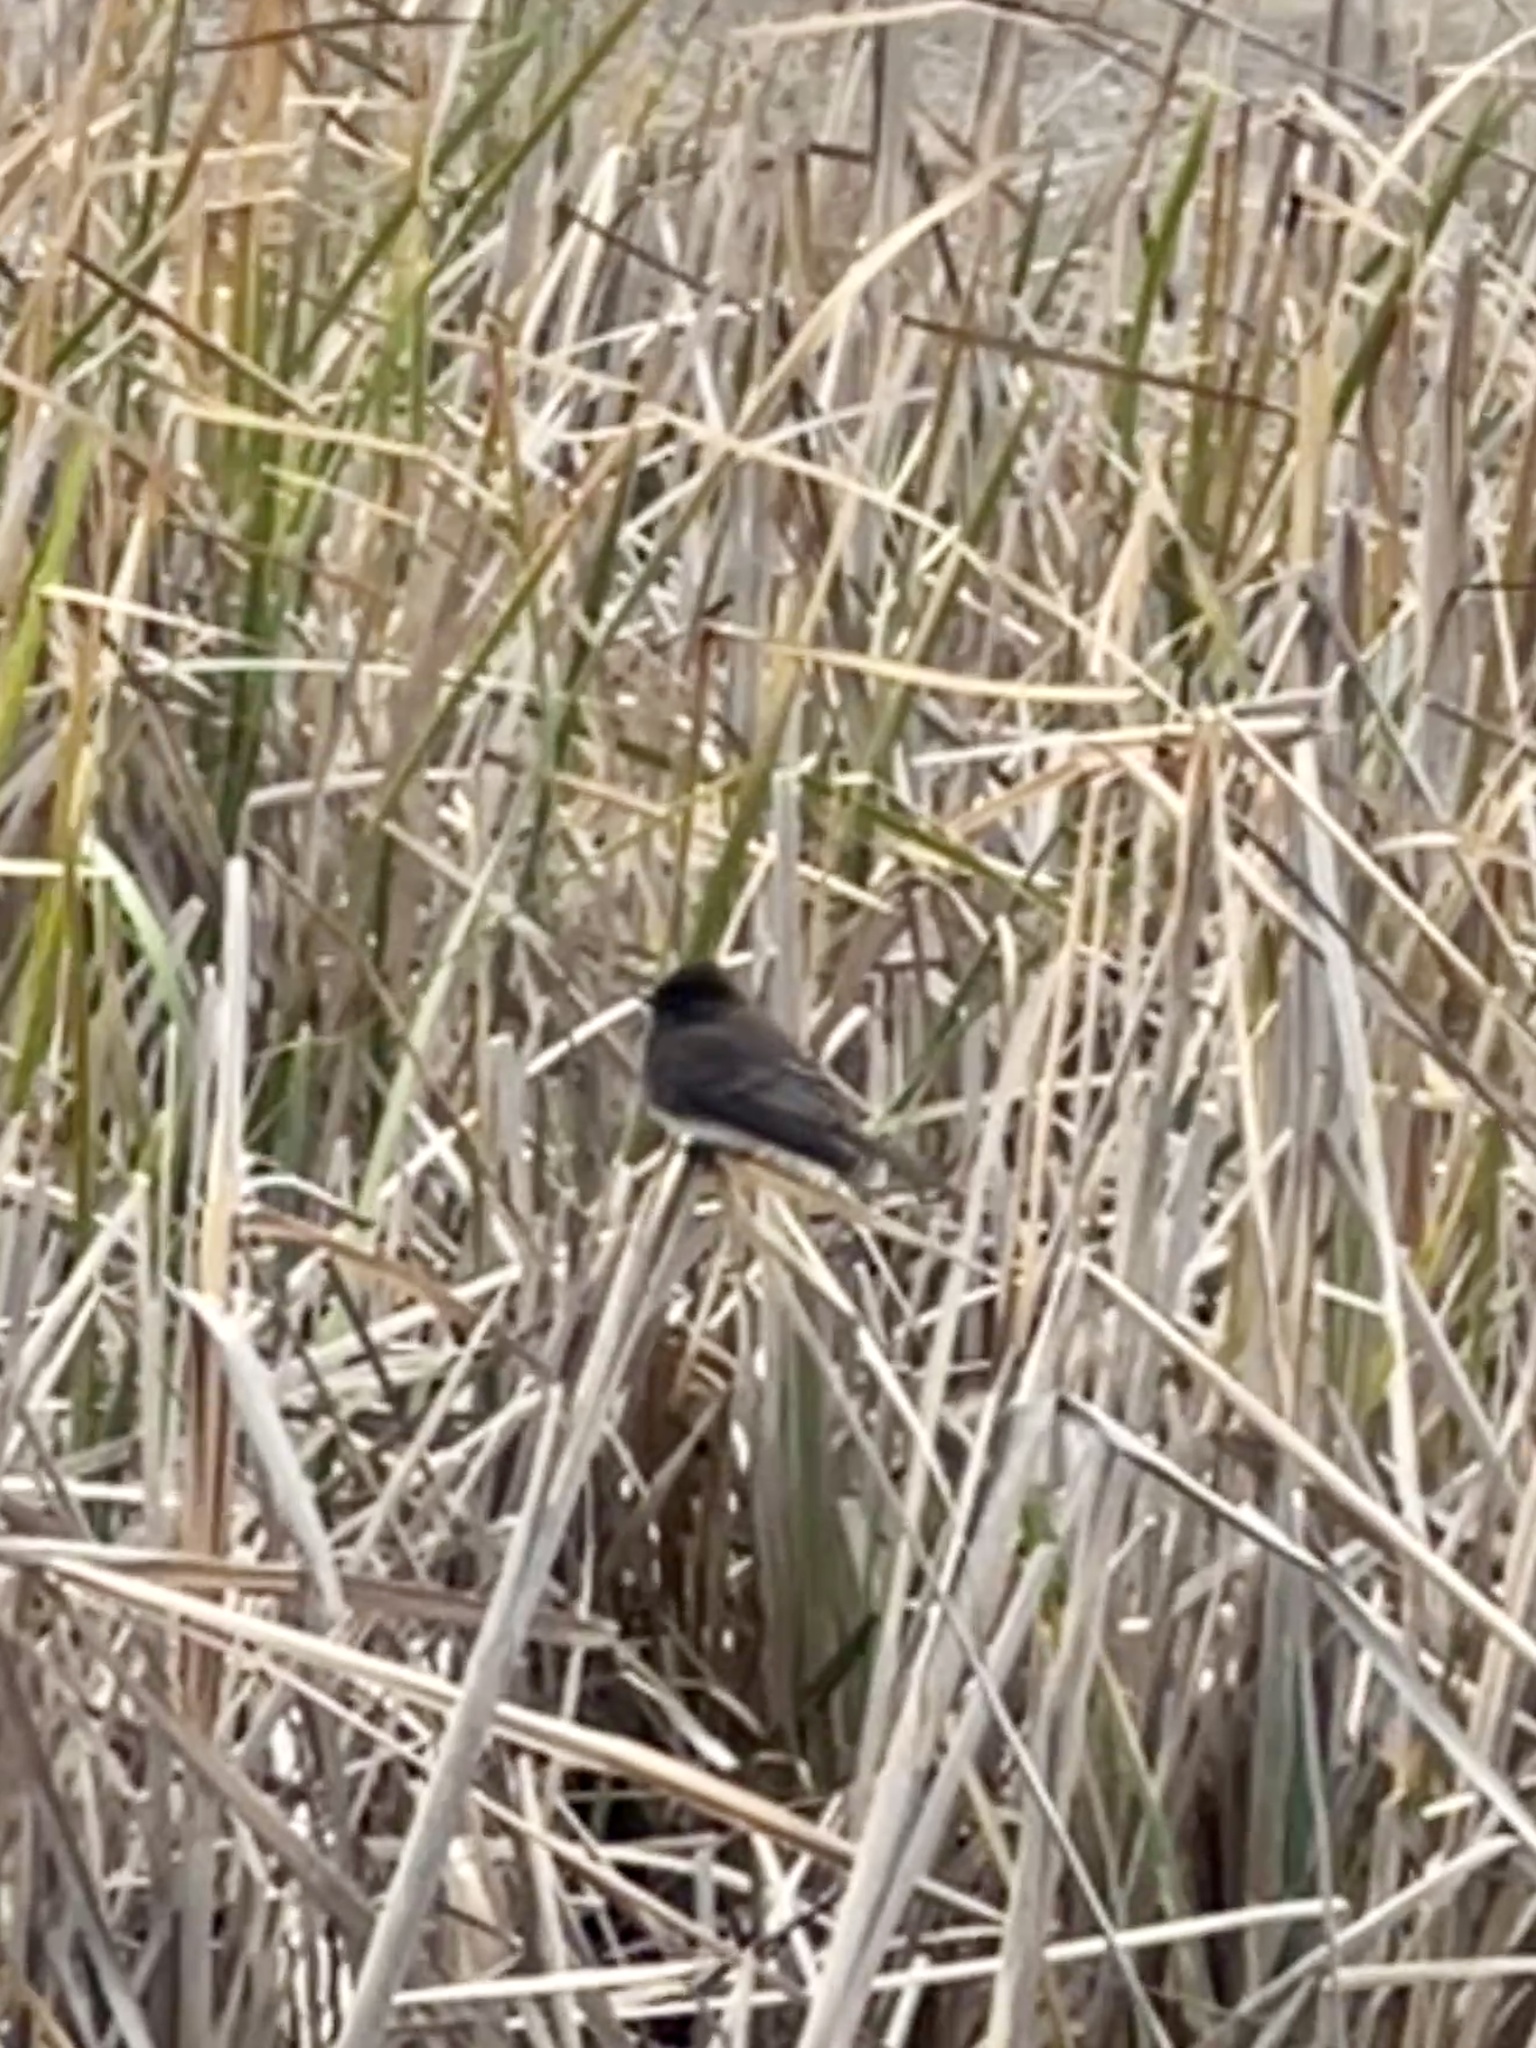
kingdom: Animalia
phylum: Chordata
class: Aves
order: Passeriformes
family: Tyrannidae
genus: Sayornis
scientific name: Sayornis nigricans
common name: Black phoebe
